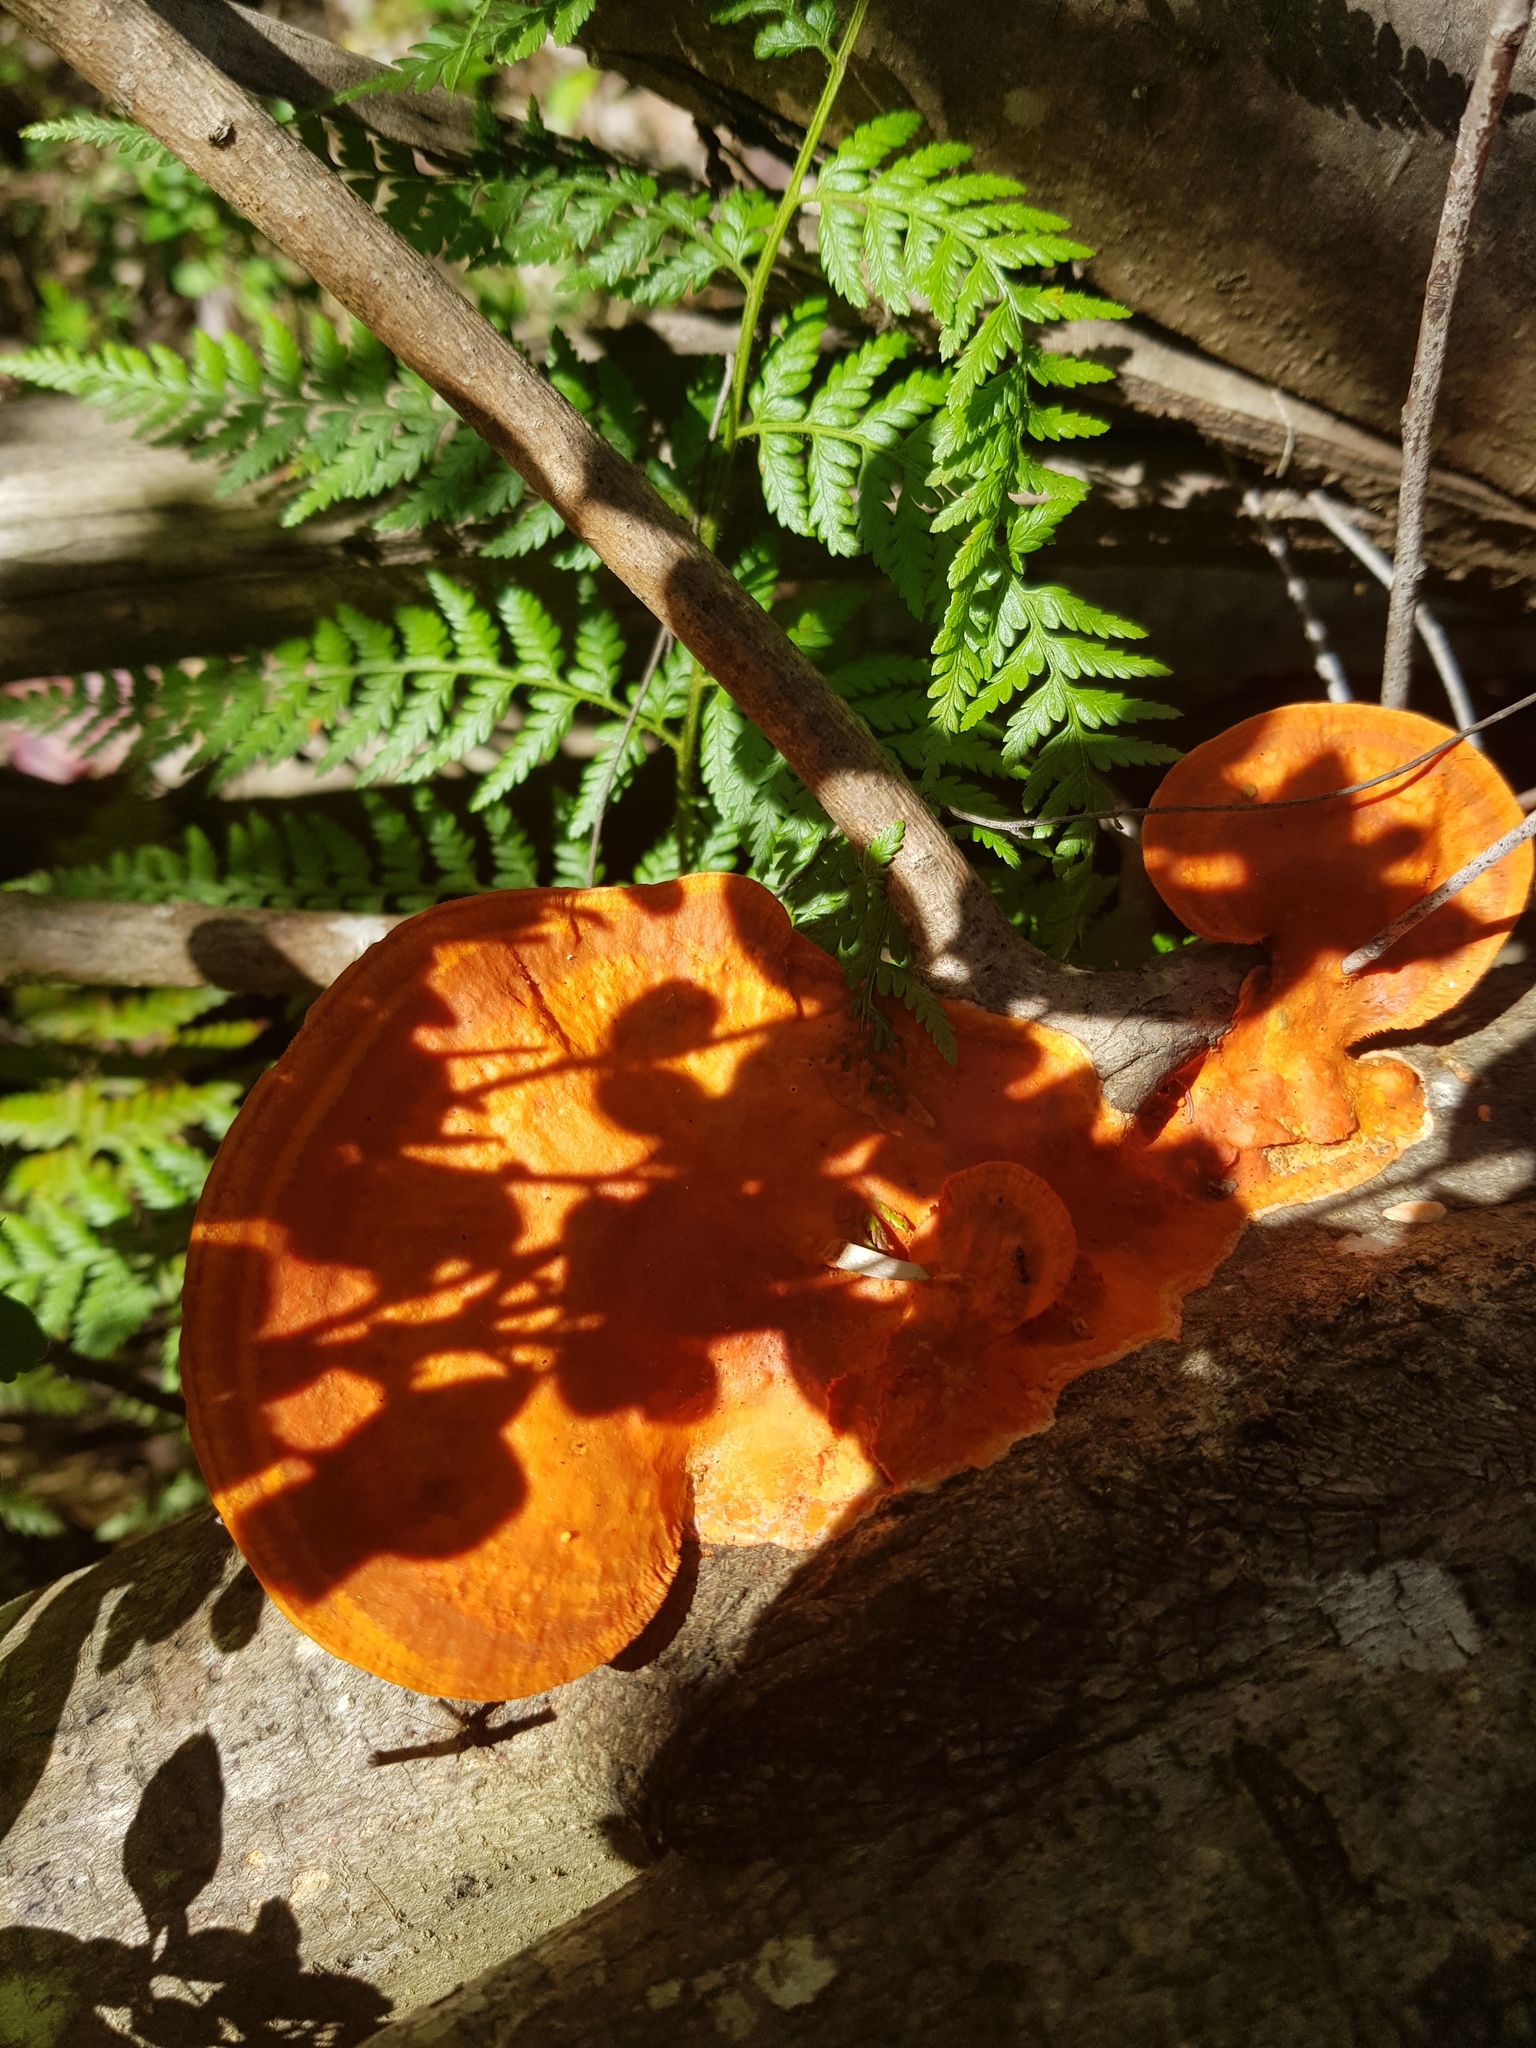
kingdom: Fungi
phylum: Basidiomycota
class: Agaricomycetes
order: Polyporales
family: Polyporaceae
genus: Trametes
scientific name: Trametes coccinea
